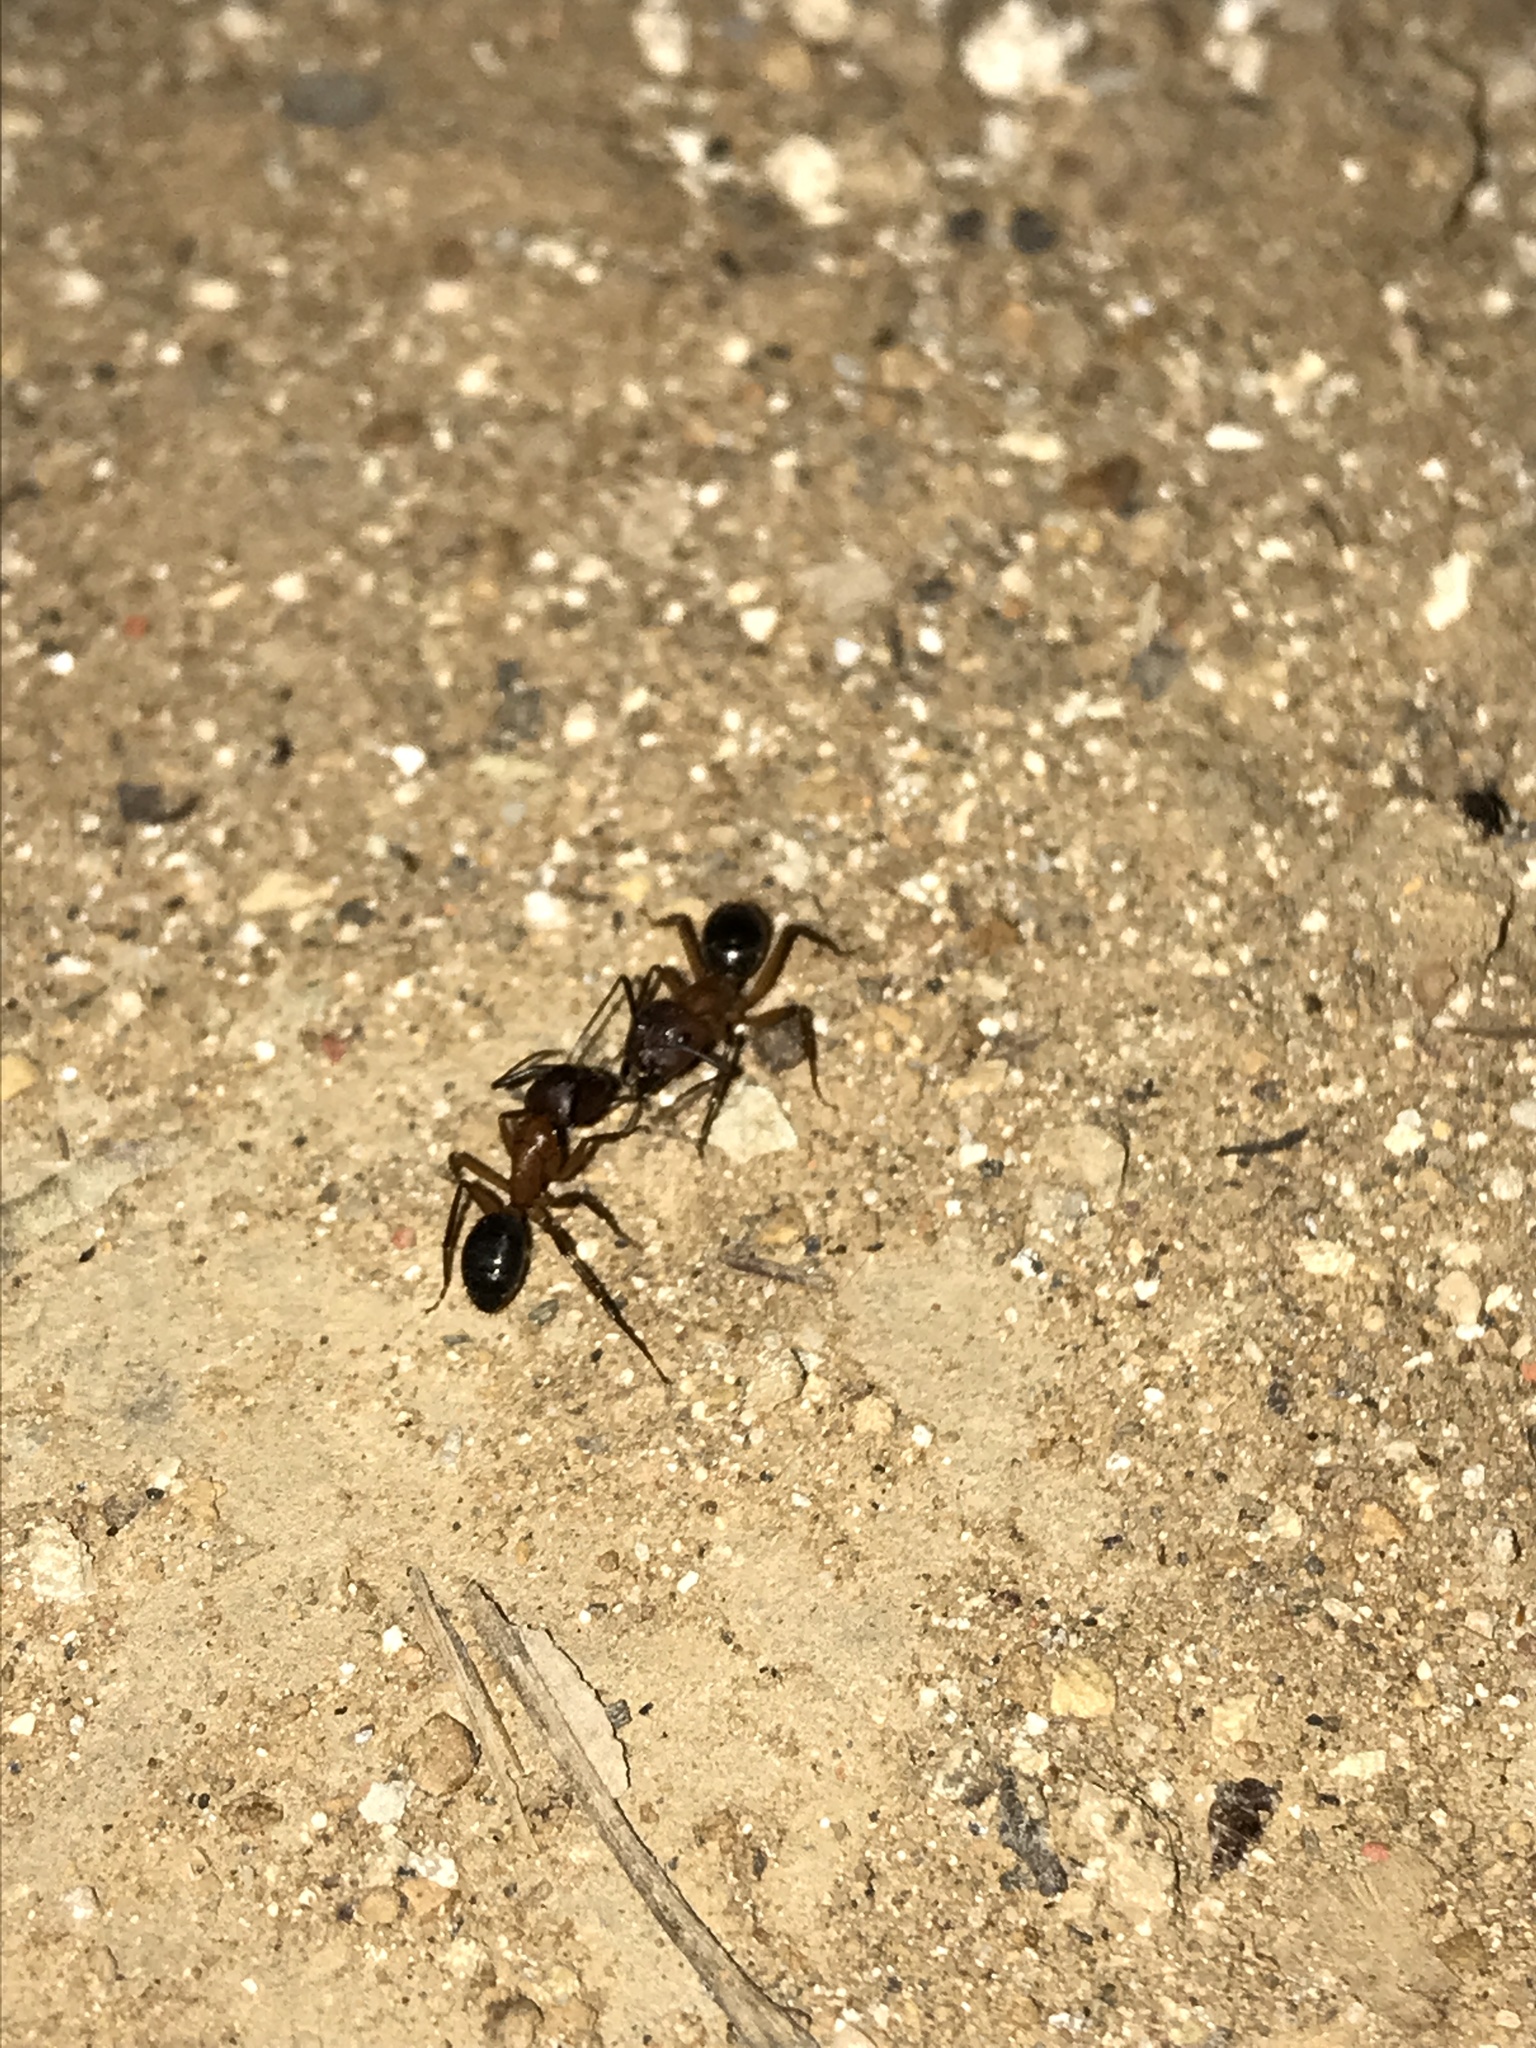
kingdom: Animalia
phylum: Arthropoda
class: Insecta
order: Hymenoptera
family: Formicidae
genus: Camponotus
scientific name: Camponotus atriceps
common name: Florida carpenter ant
